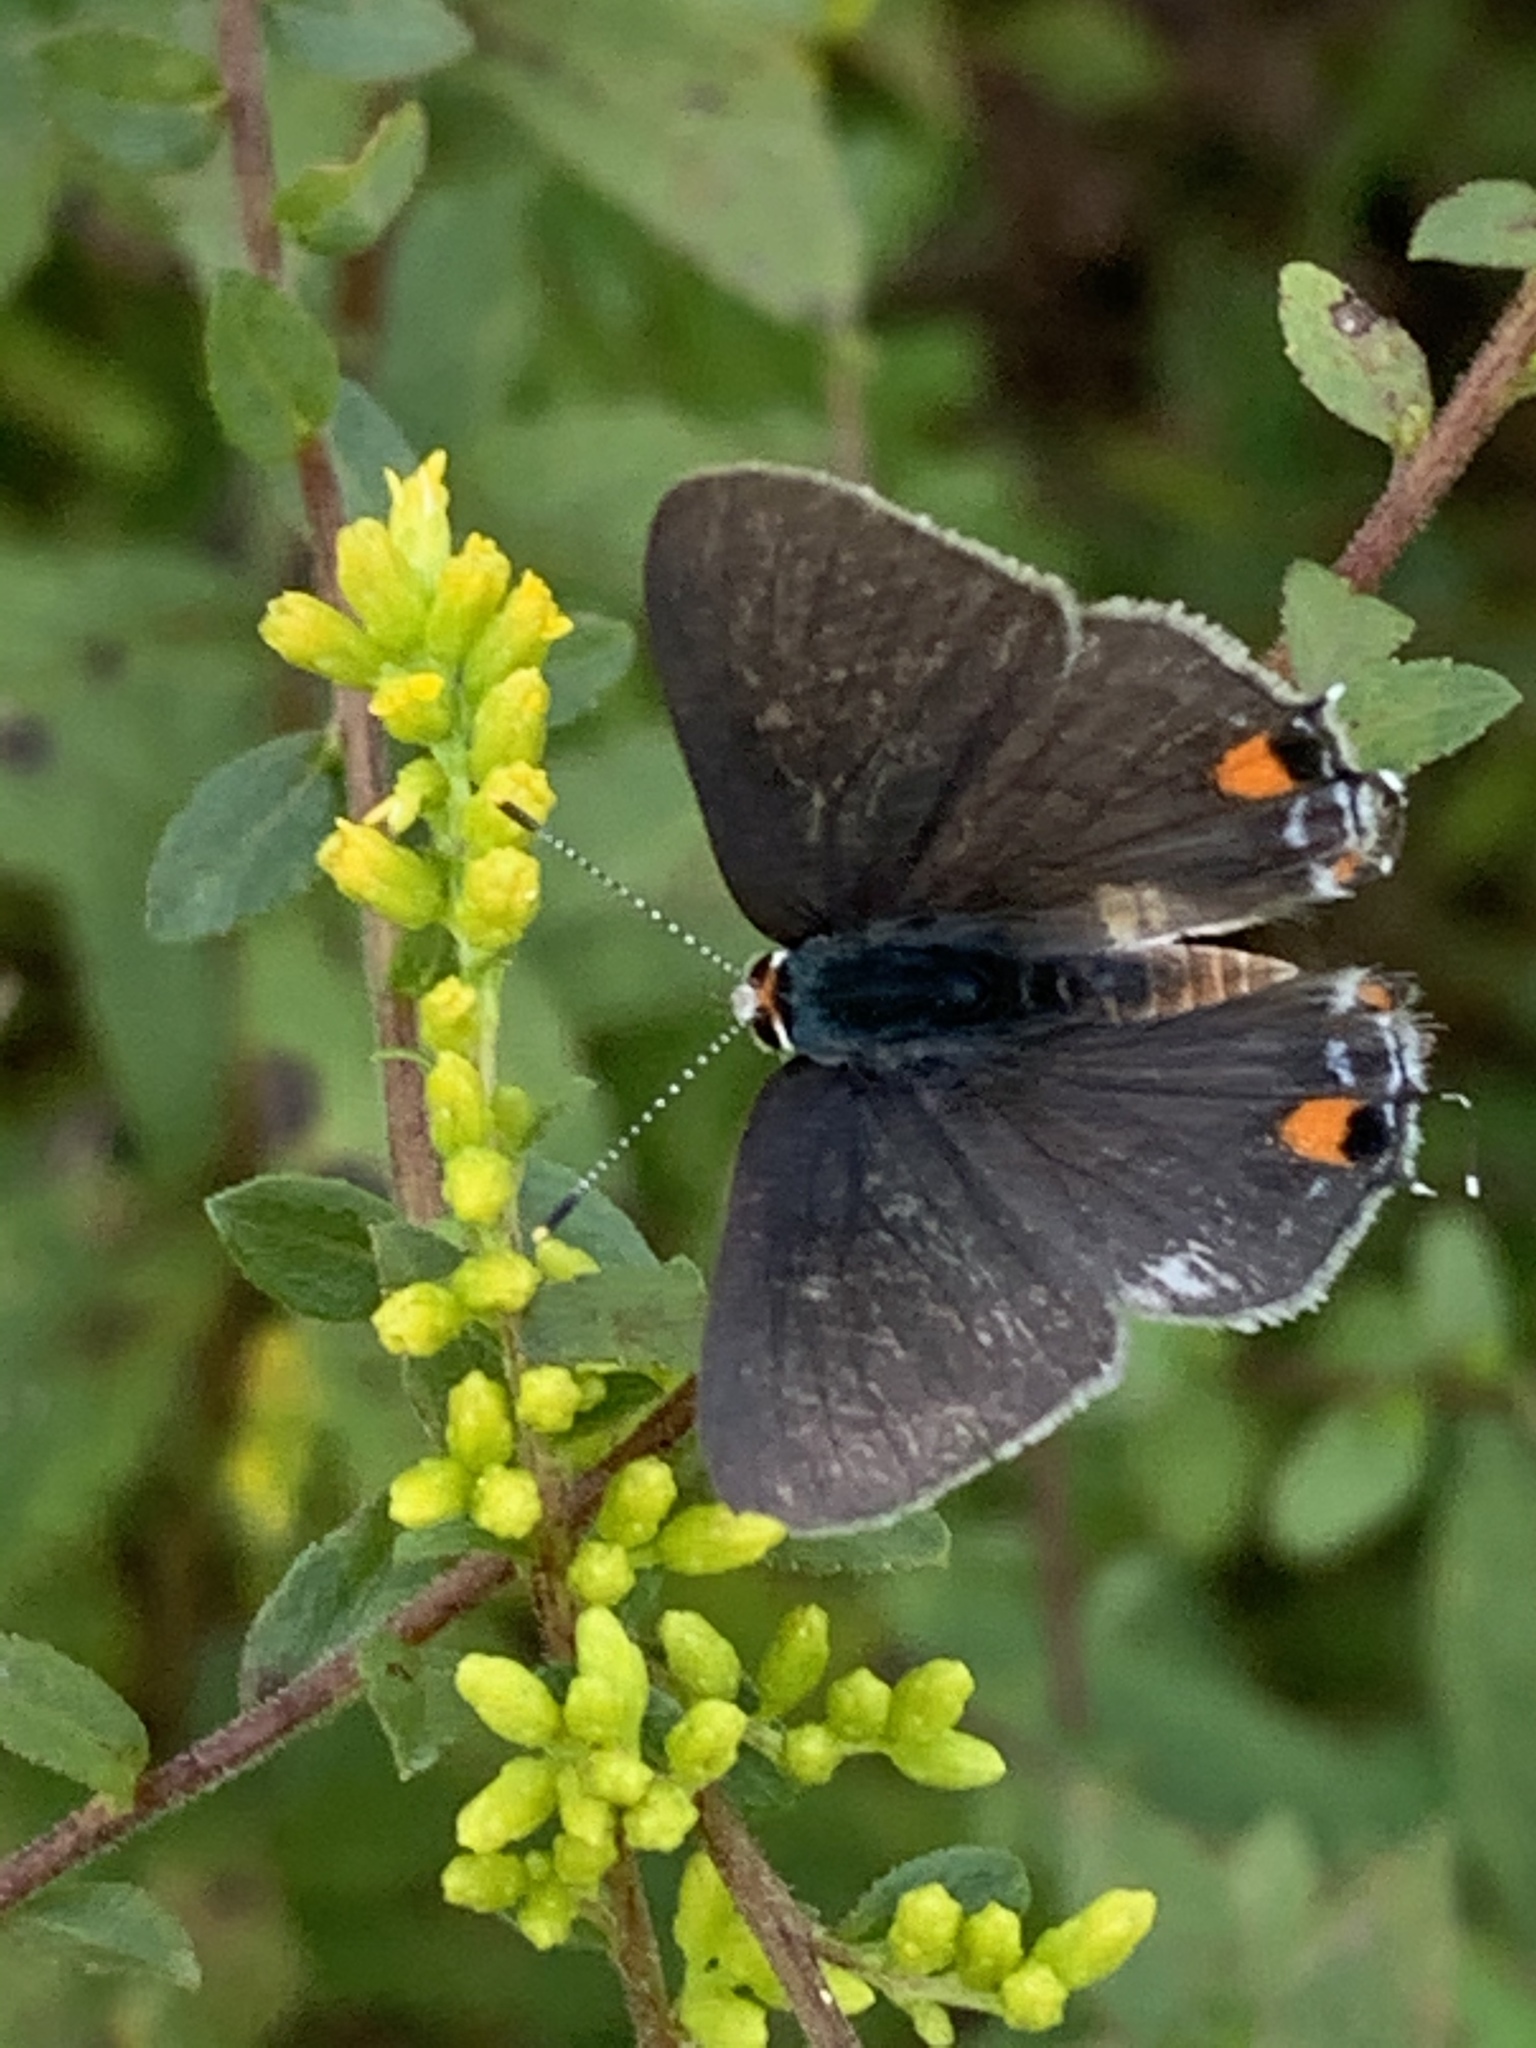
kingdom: Animalia
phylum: Arthropoda
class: Insecta
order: Lepidoptera
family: Lycaenidae
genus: Strymon
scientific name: Strymon melinus
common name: Gray hairstreak
